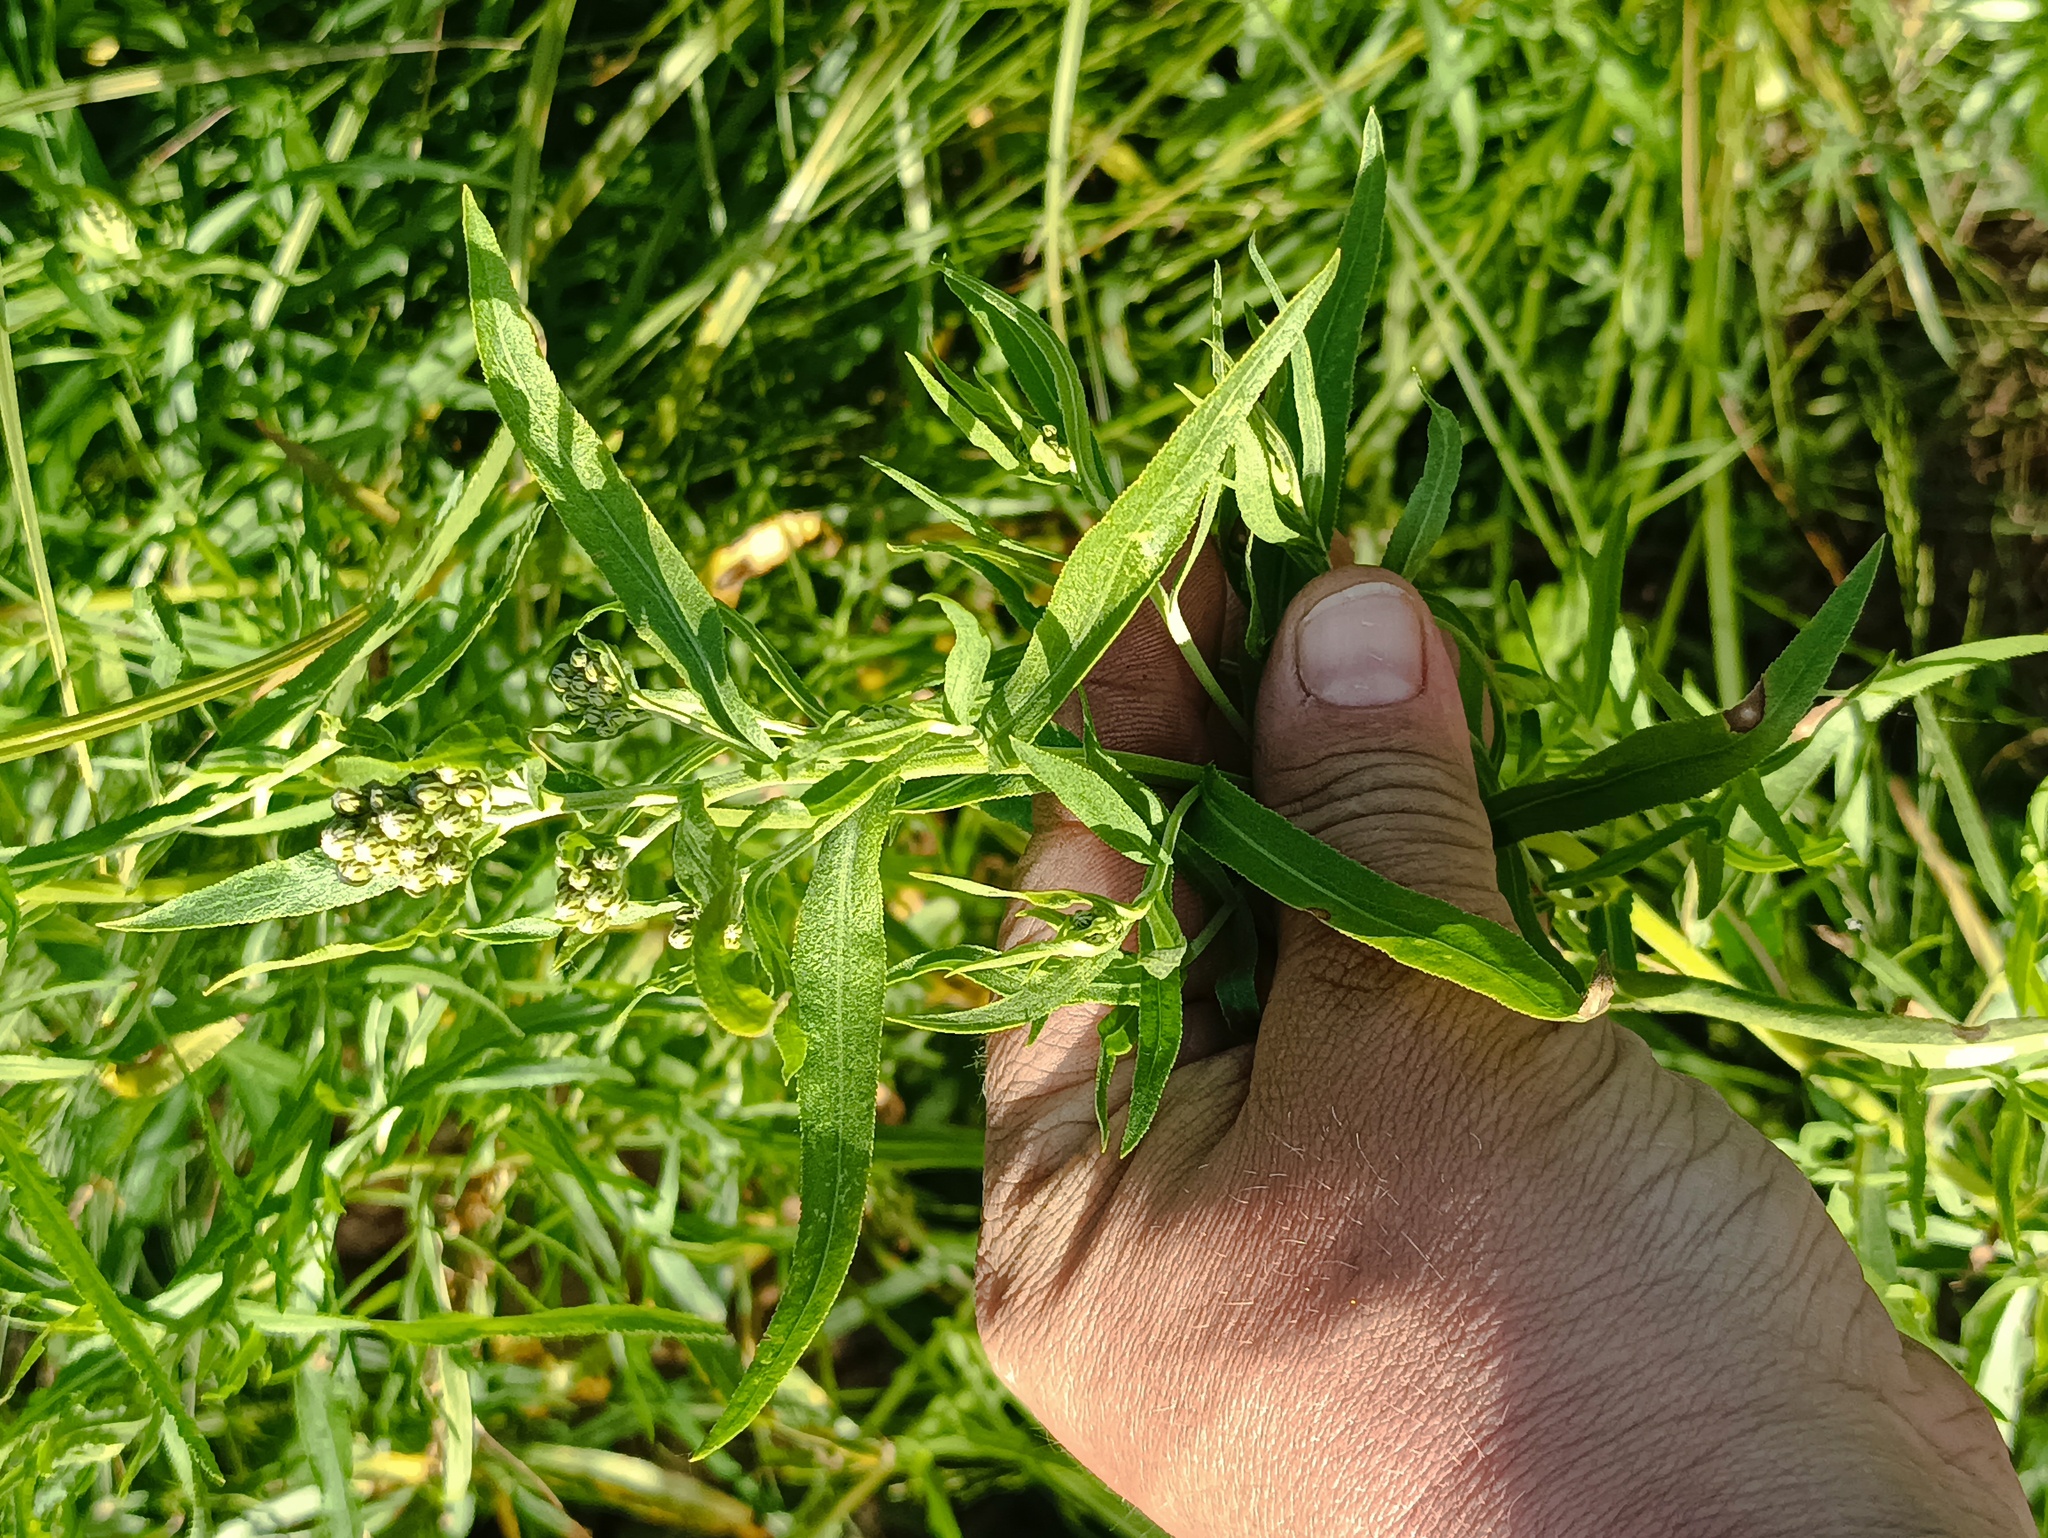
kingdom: Plantae
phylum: Tracheophyta
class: Magnoliopsida
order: Asterales
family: Asteraceae
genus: Achillea
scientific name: Achillea salicifolia
